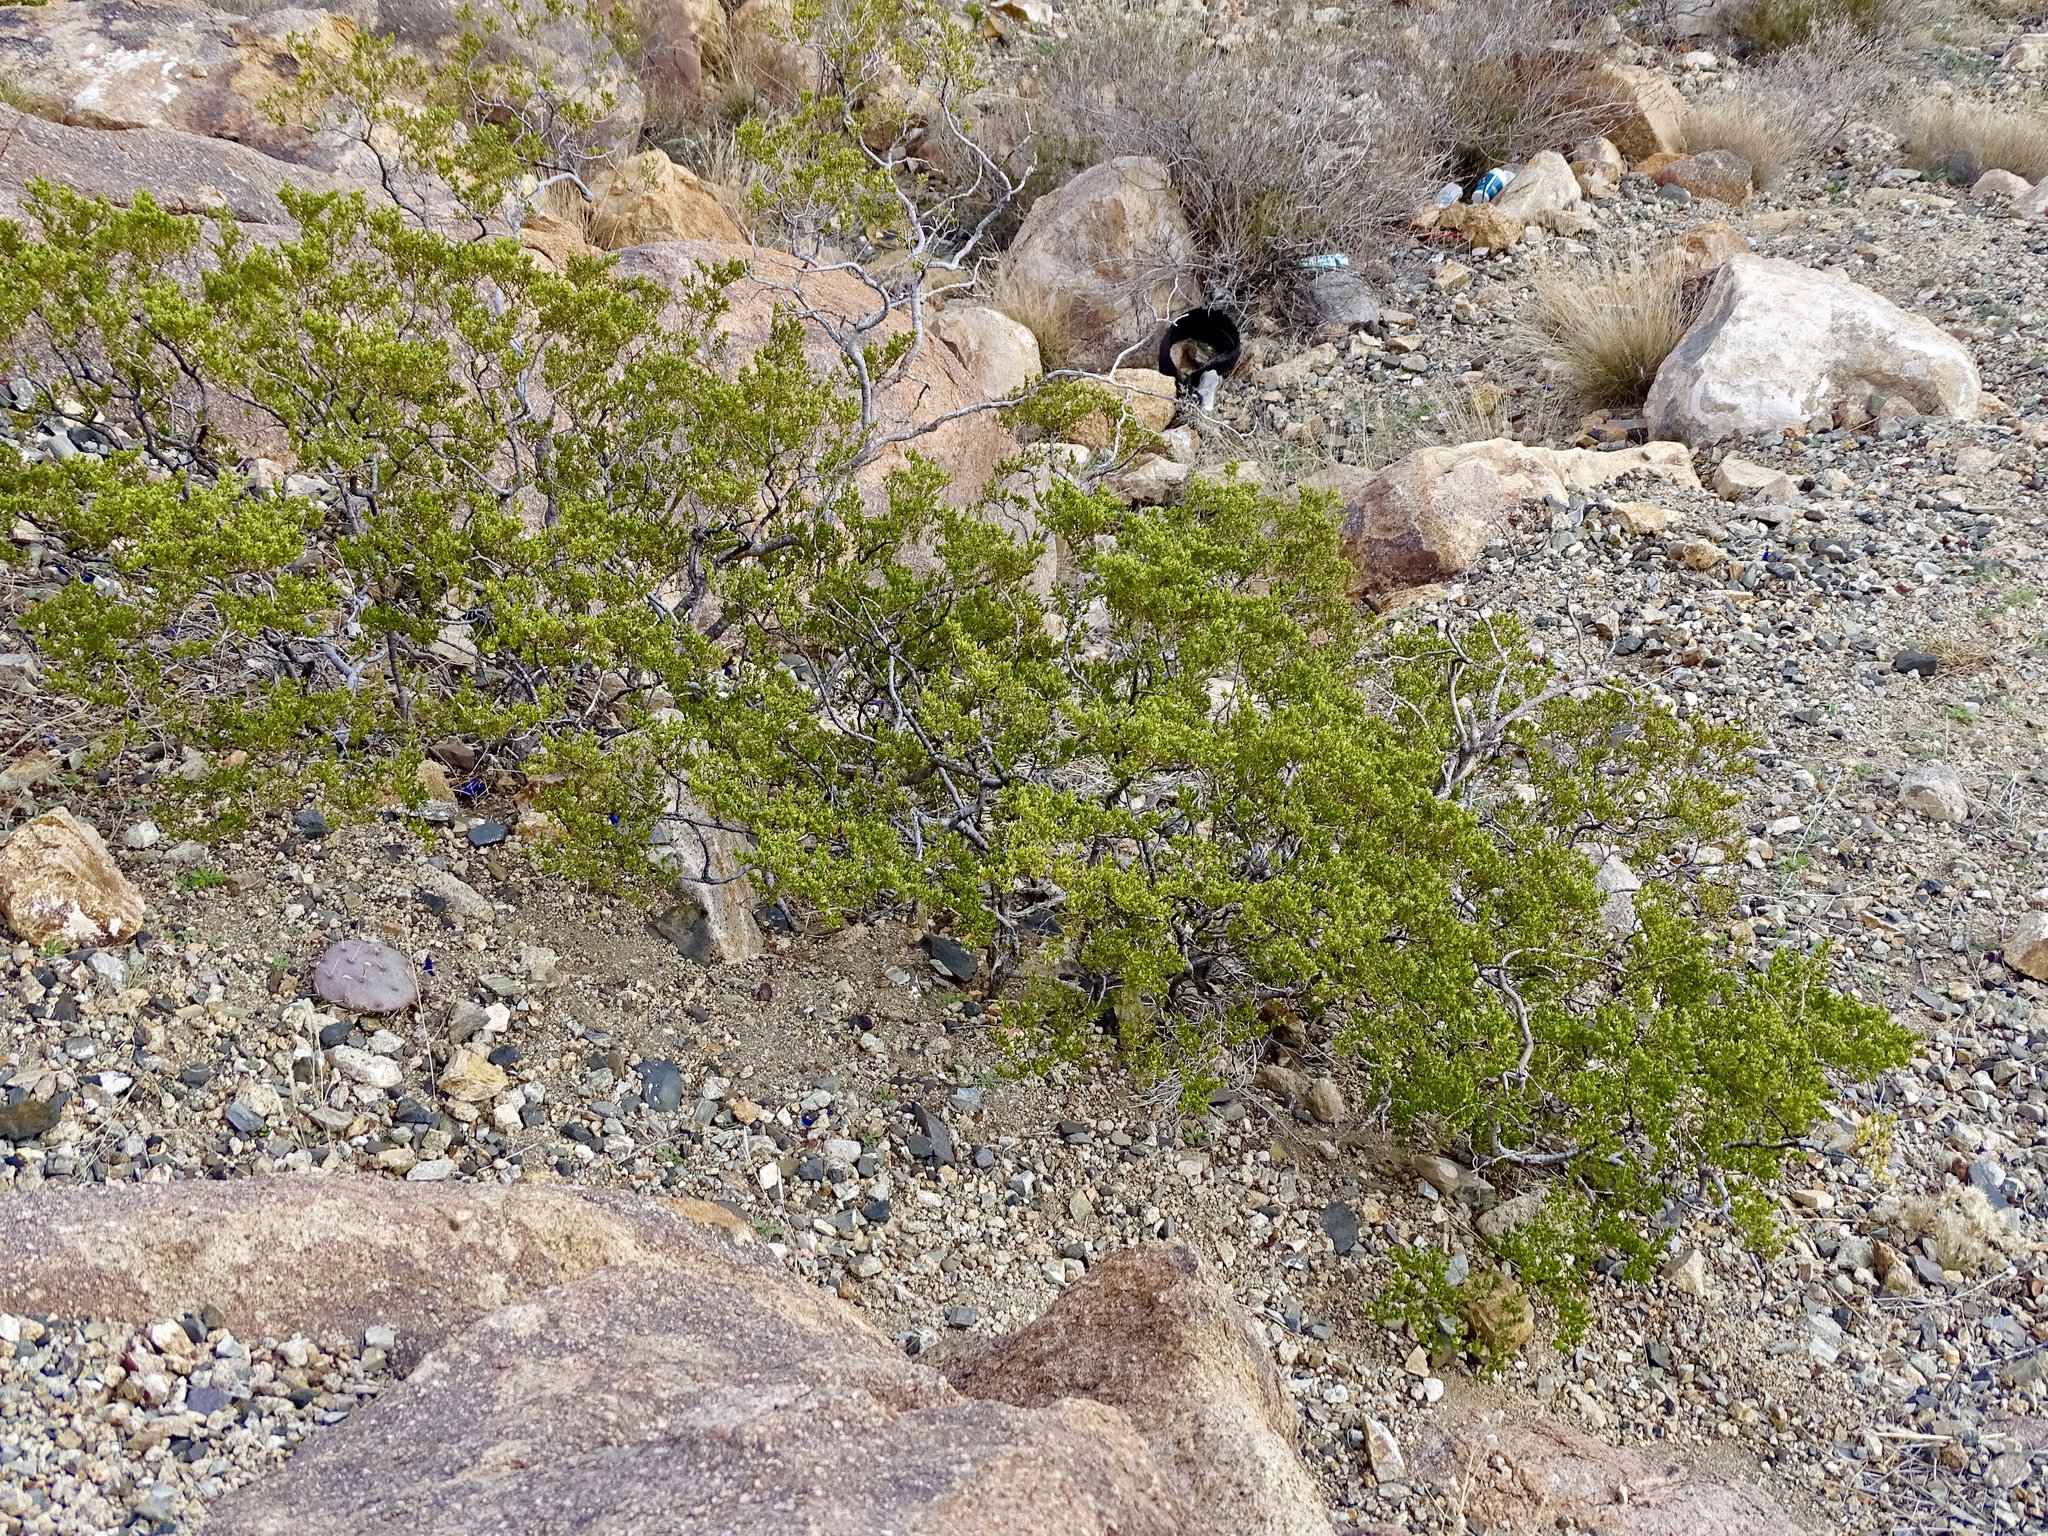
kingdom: Plantae
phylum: Tracheophyta
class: Magnoliopsida
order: Zygophyllales
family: Zygophyllaceae
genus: Larrea
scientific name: Larrea tridentata
